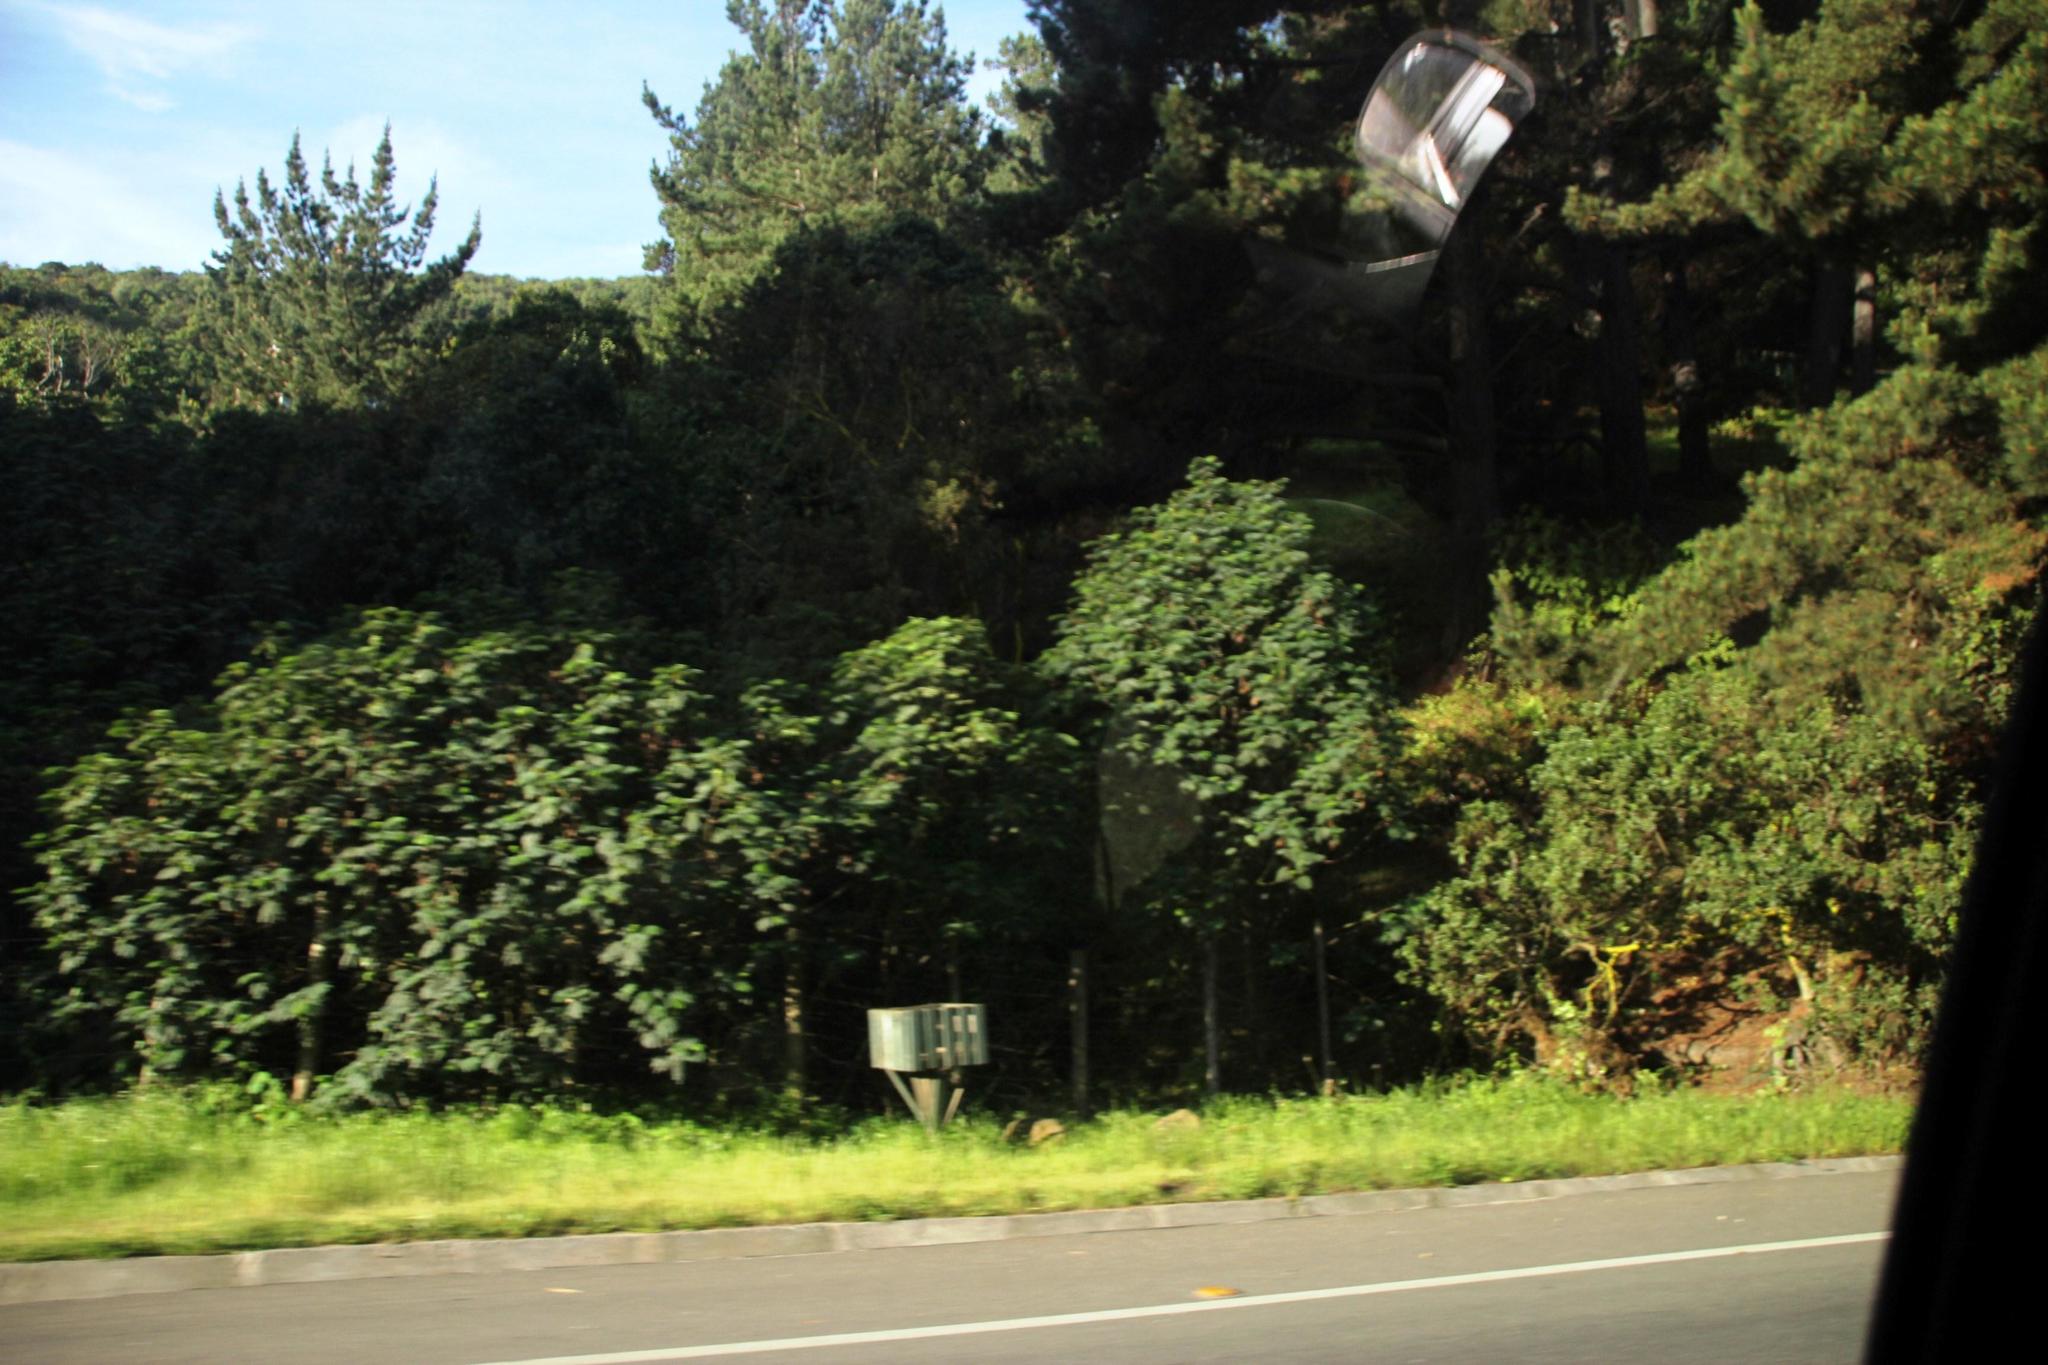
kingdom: Plantae
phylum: Tracheophyta
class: Magnoliopsida
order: Fabales
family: Fabaceae
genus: Paraserianthes
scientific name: Paraserianthes lophantha
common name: Plume albizia
